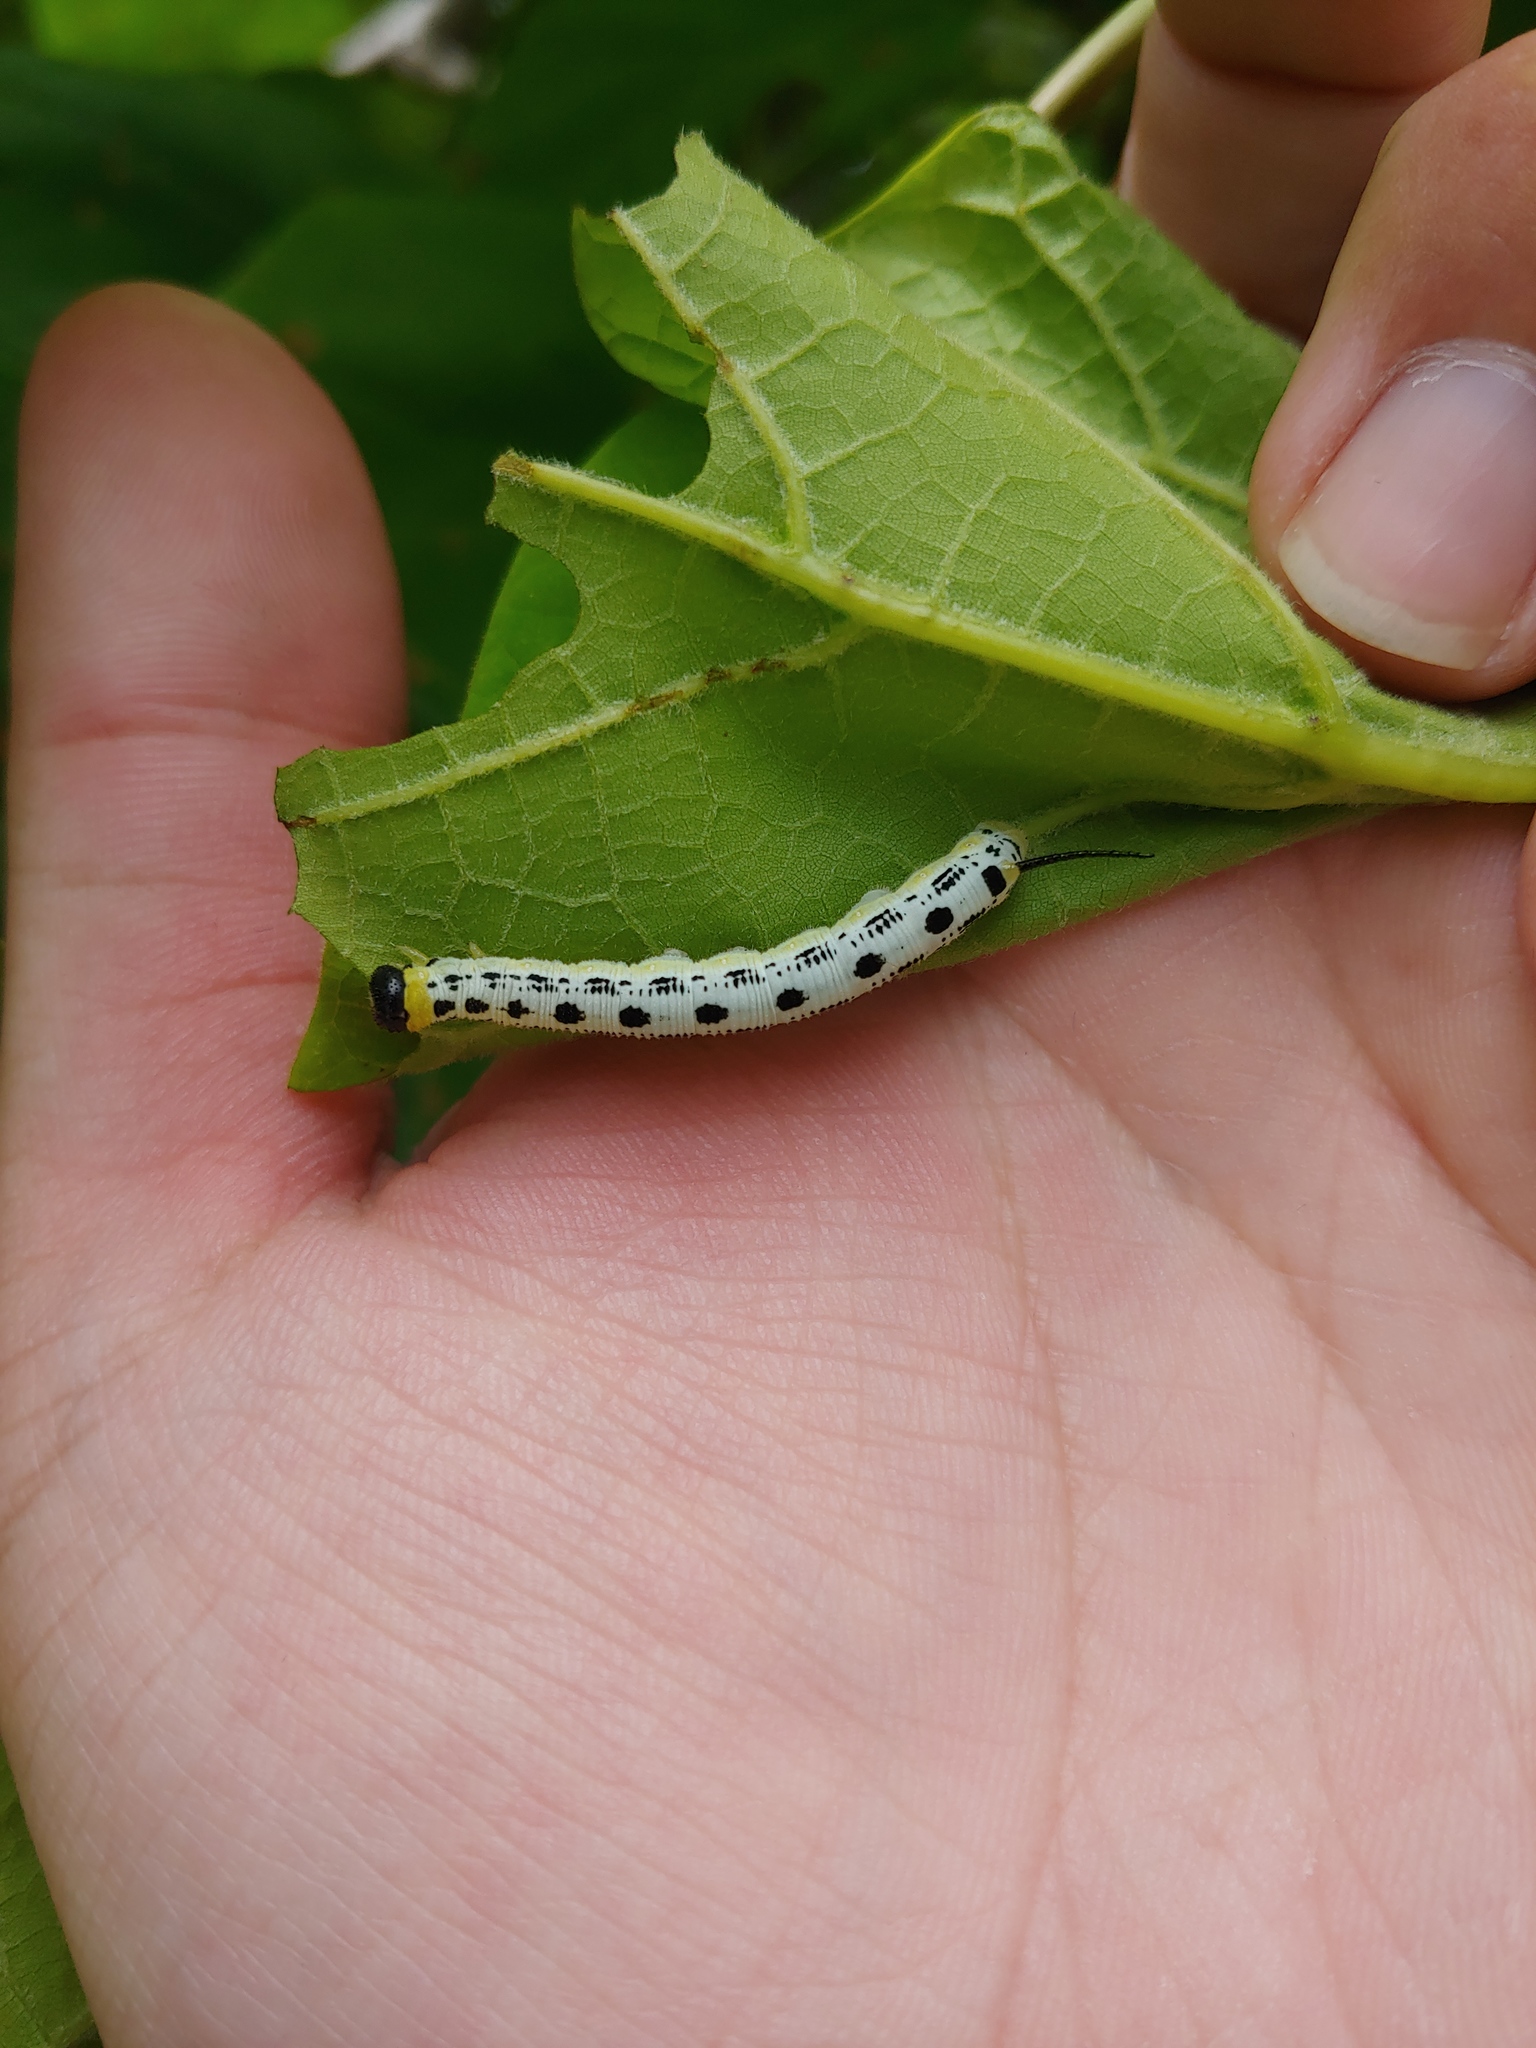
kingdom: Animalia
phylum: Arthropoda
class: Insecta
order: Lepidoptera
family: Sphingidae
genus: Ceratomia
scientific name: Ceratomia catalpae
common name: Catalpa hornworm
